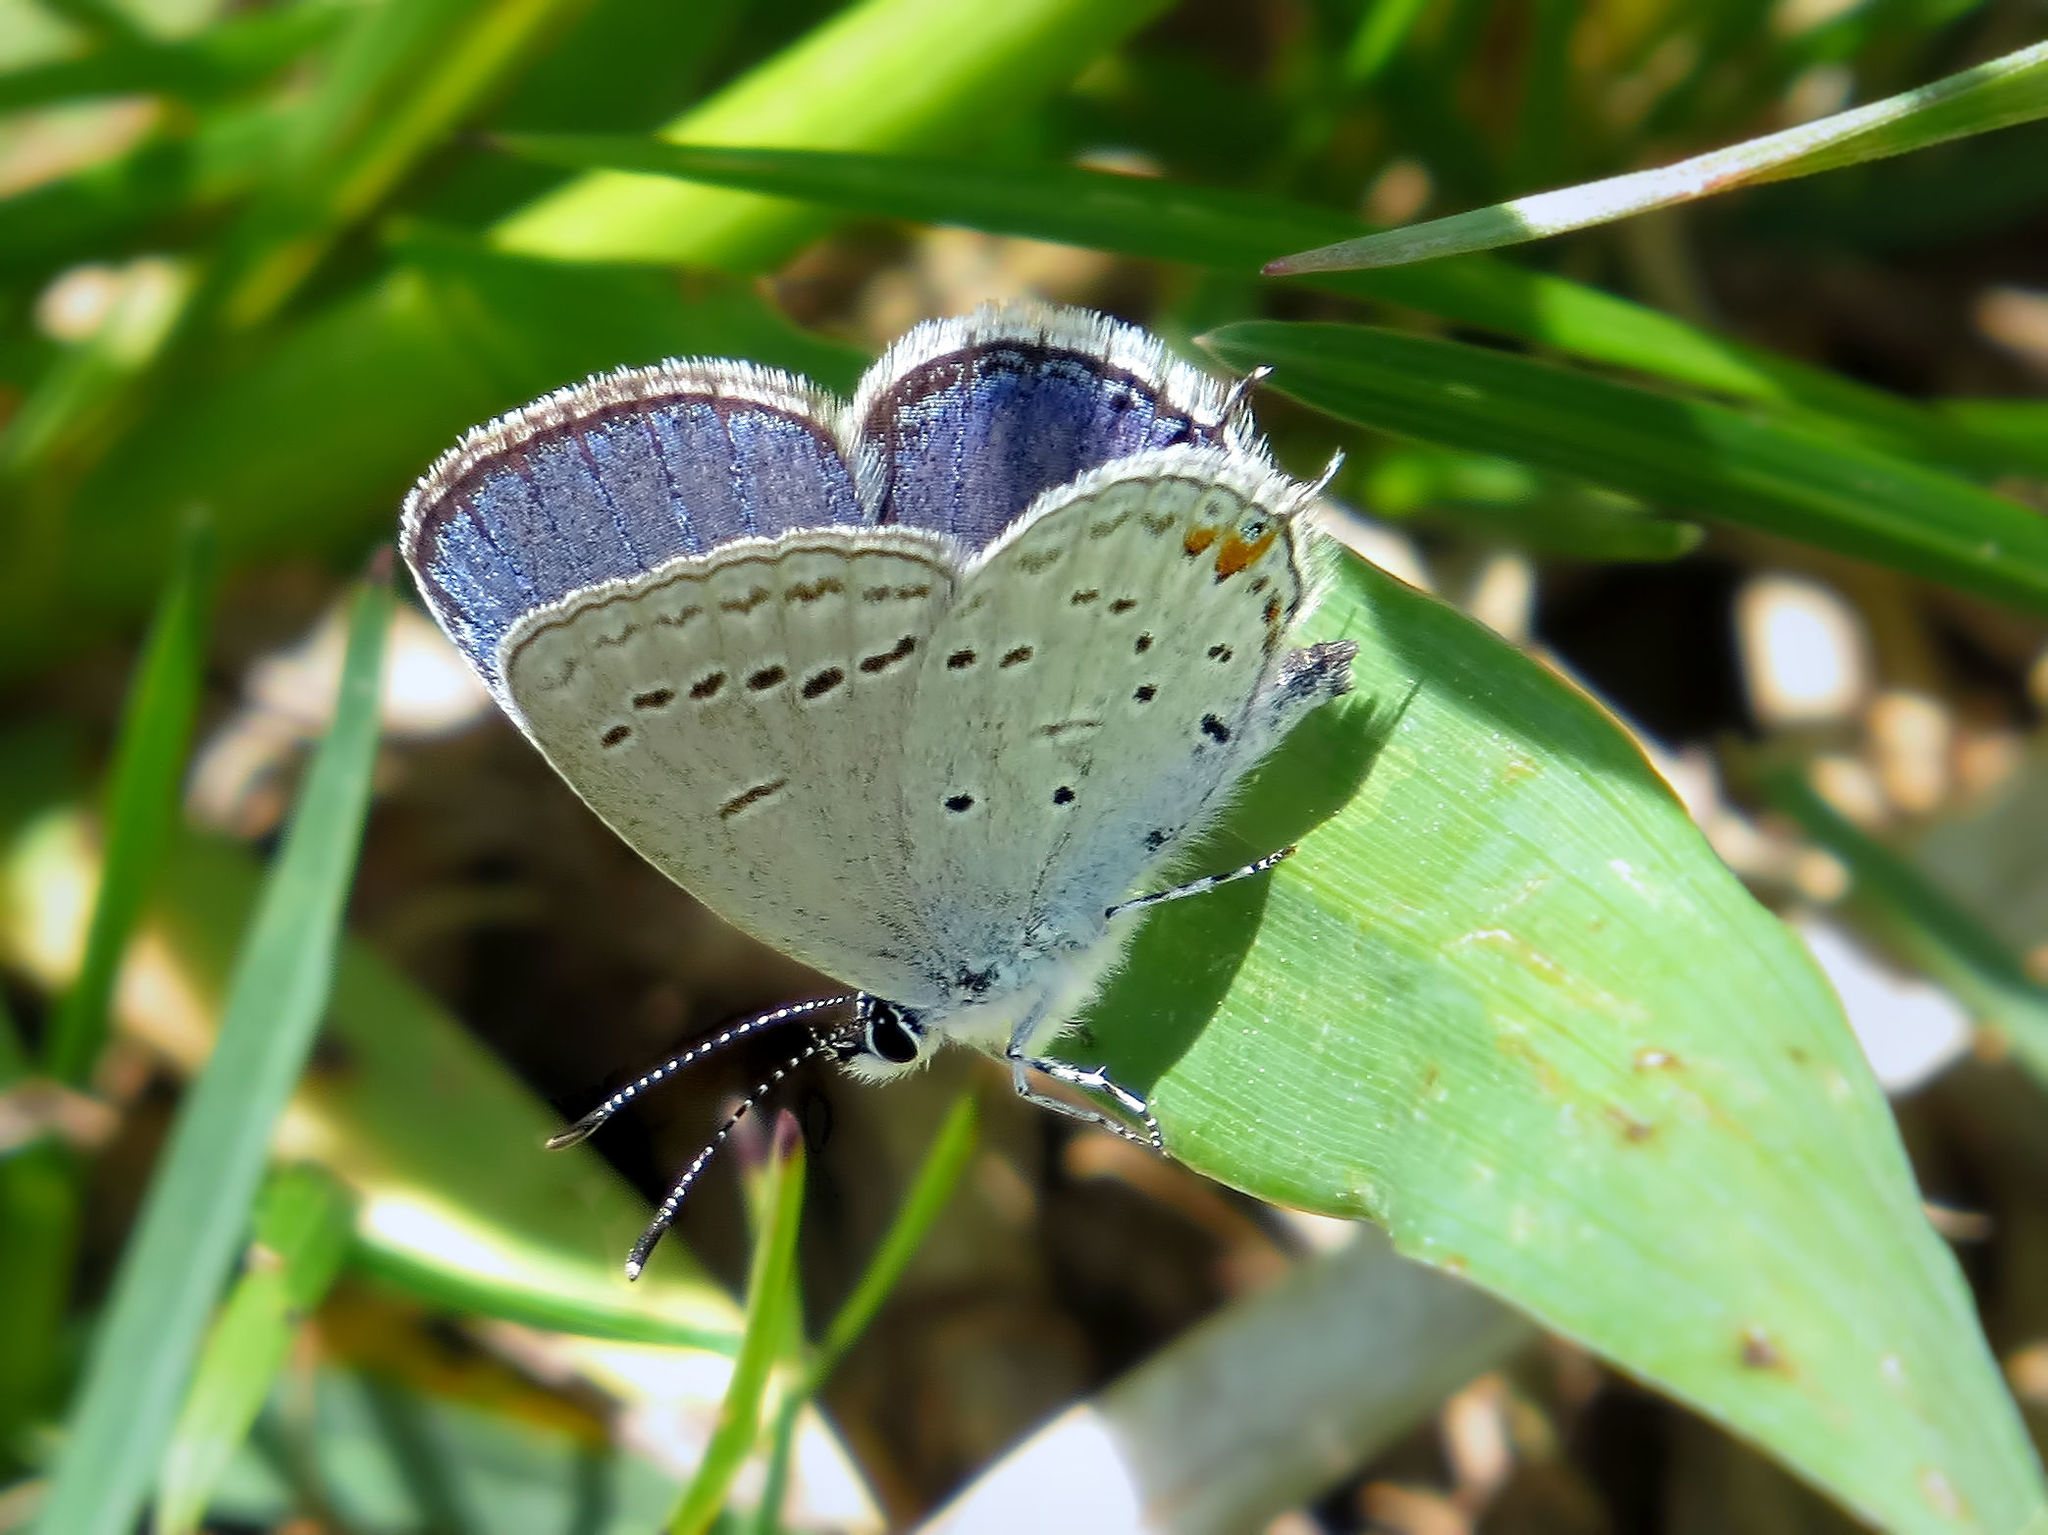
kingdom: Animalia
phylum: Arthropoda
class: Insecta
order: Lepidoptera
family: Lycaenidae
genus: Elkalyce
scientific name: Elkalyce comyntas
